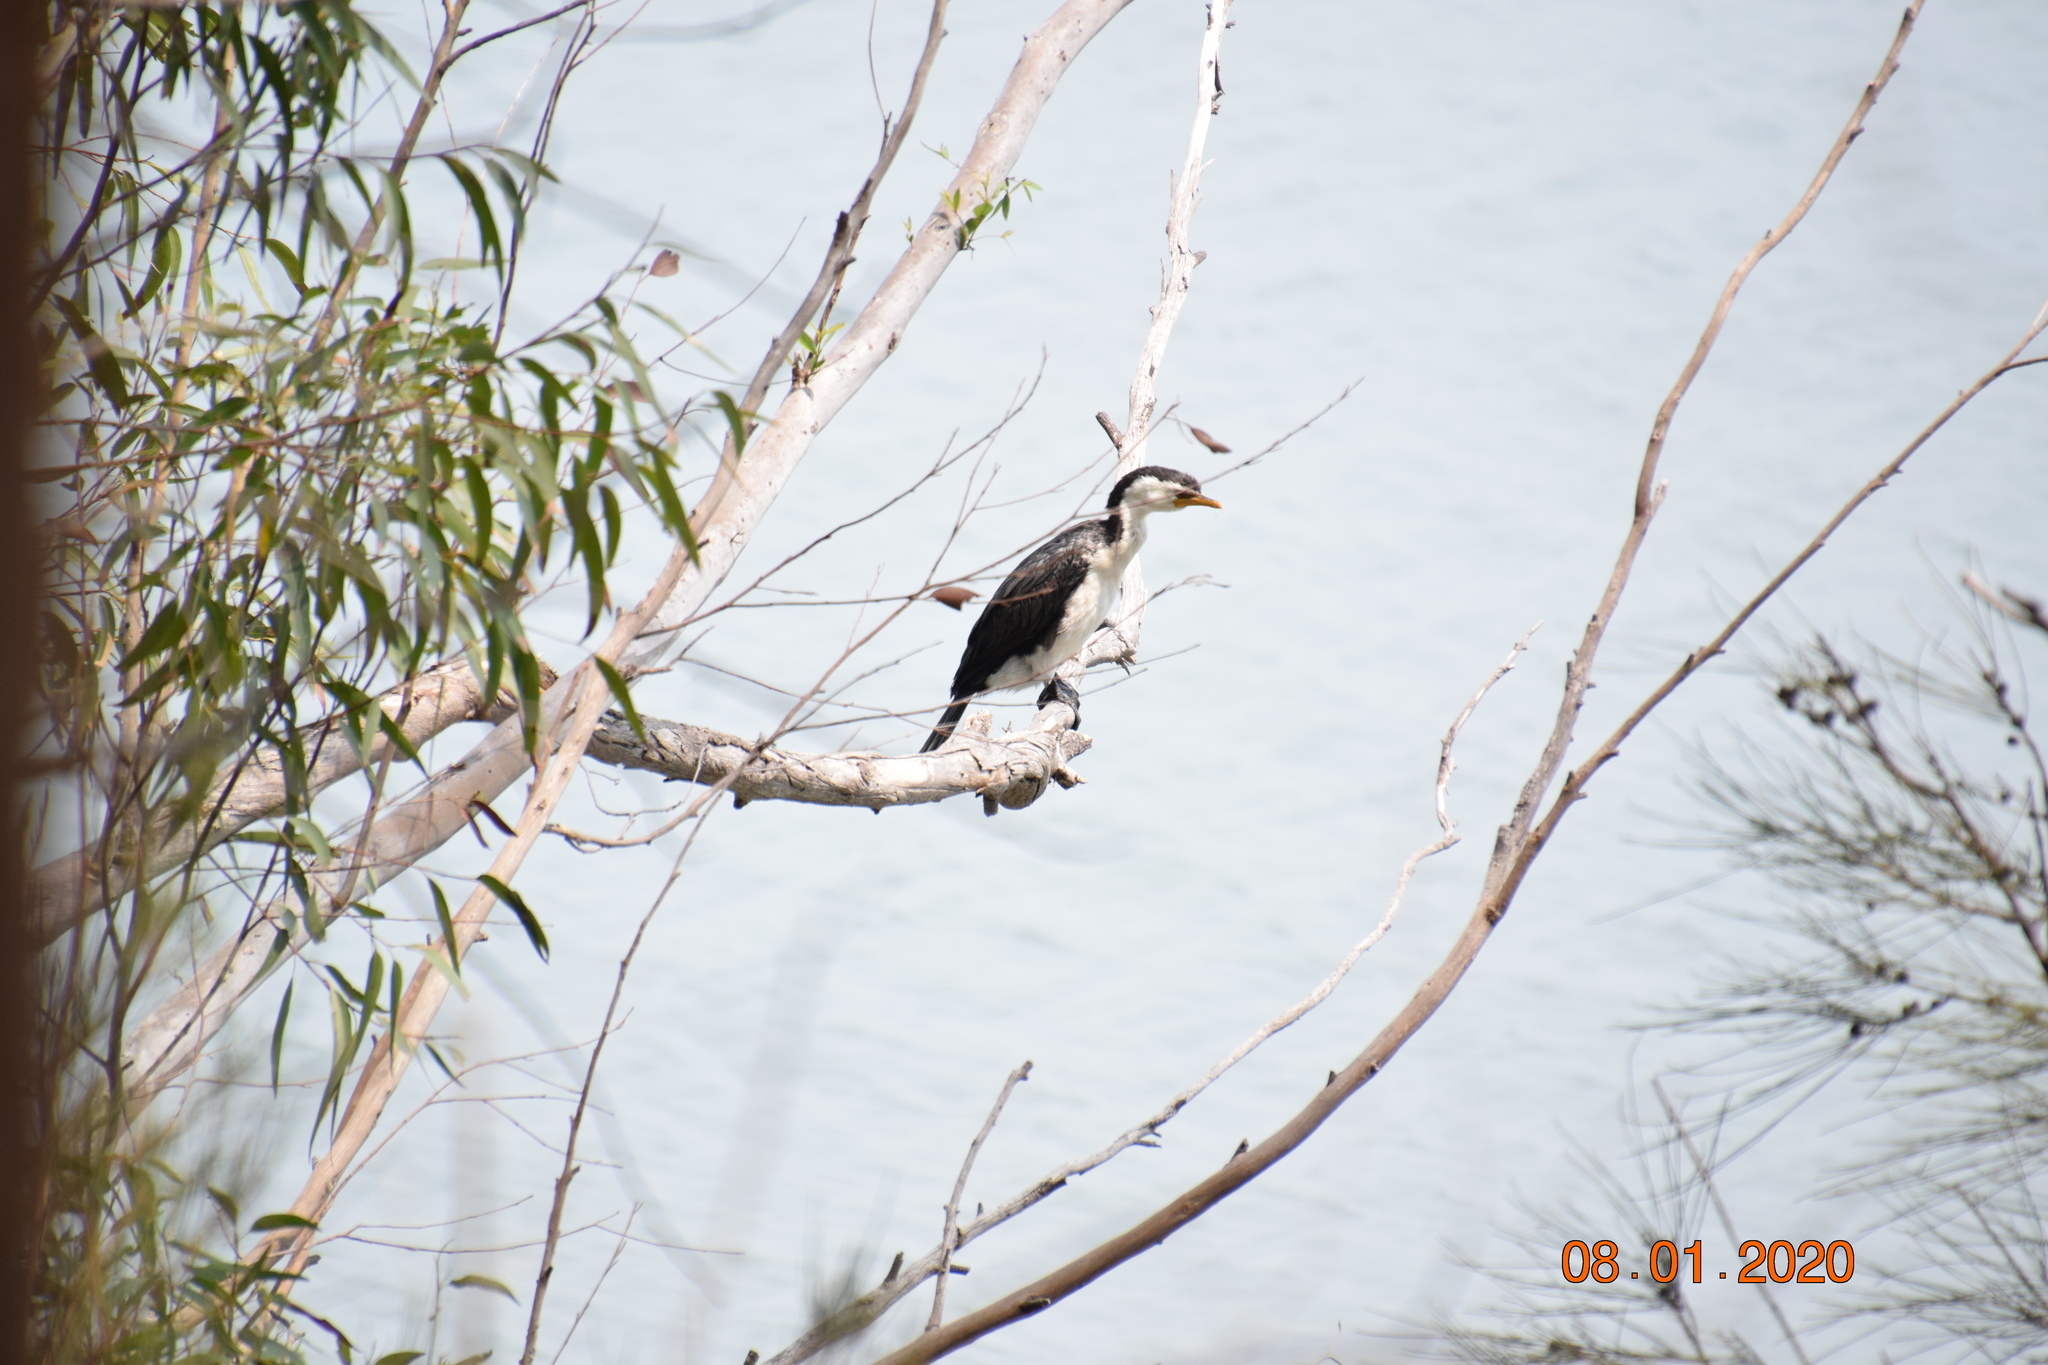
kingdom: Animalia
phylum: Chordata
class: Aves
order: Suliformes
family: Phalacrocoracidae
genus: Microcarbo
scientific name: Microcarbo melanoleucos
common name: Little pied cormorant
